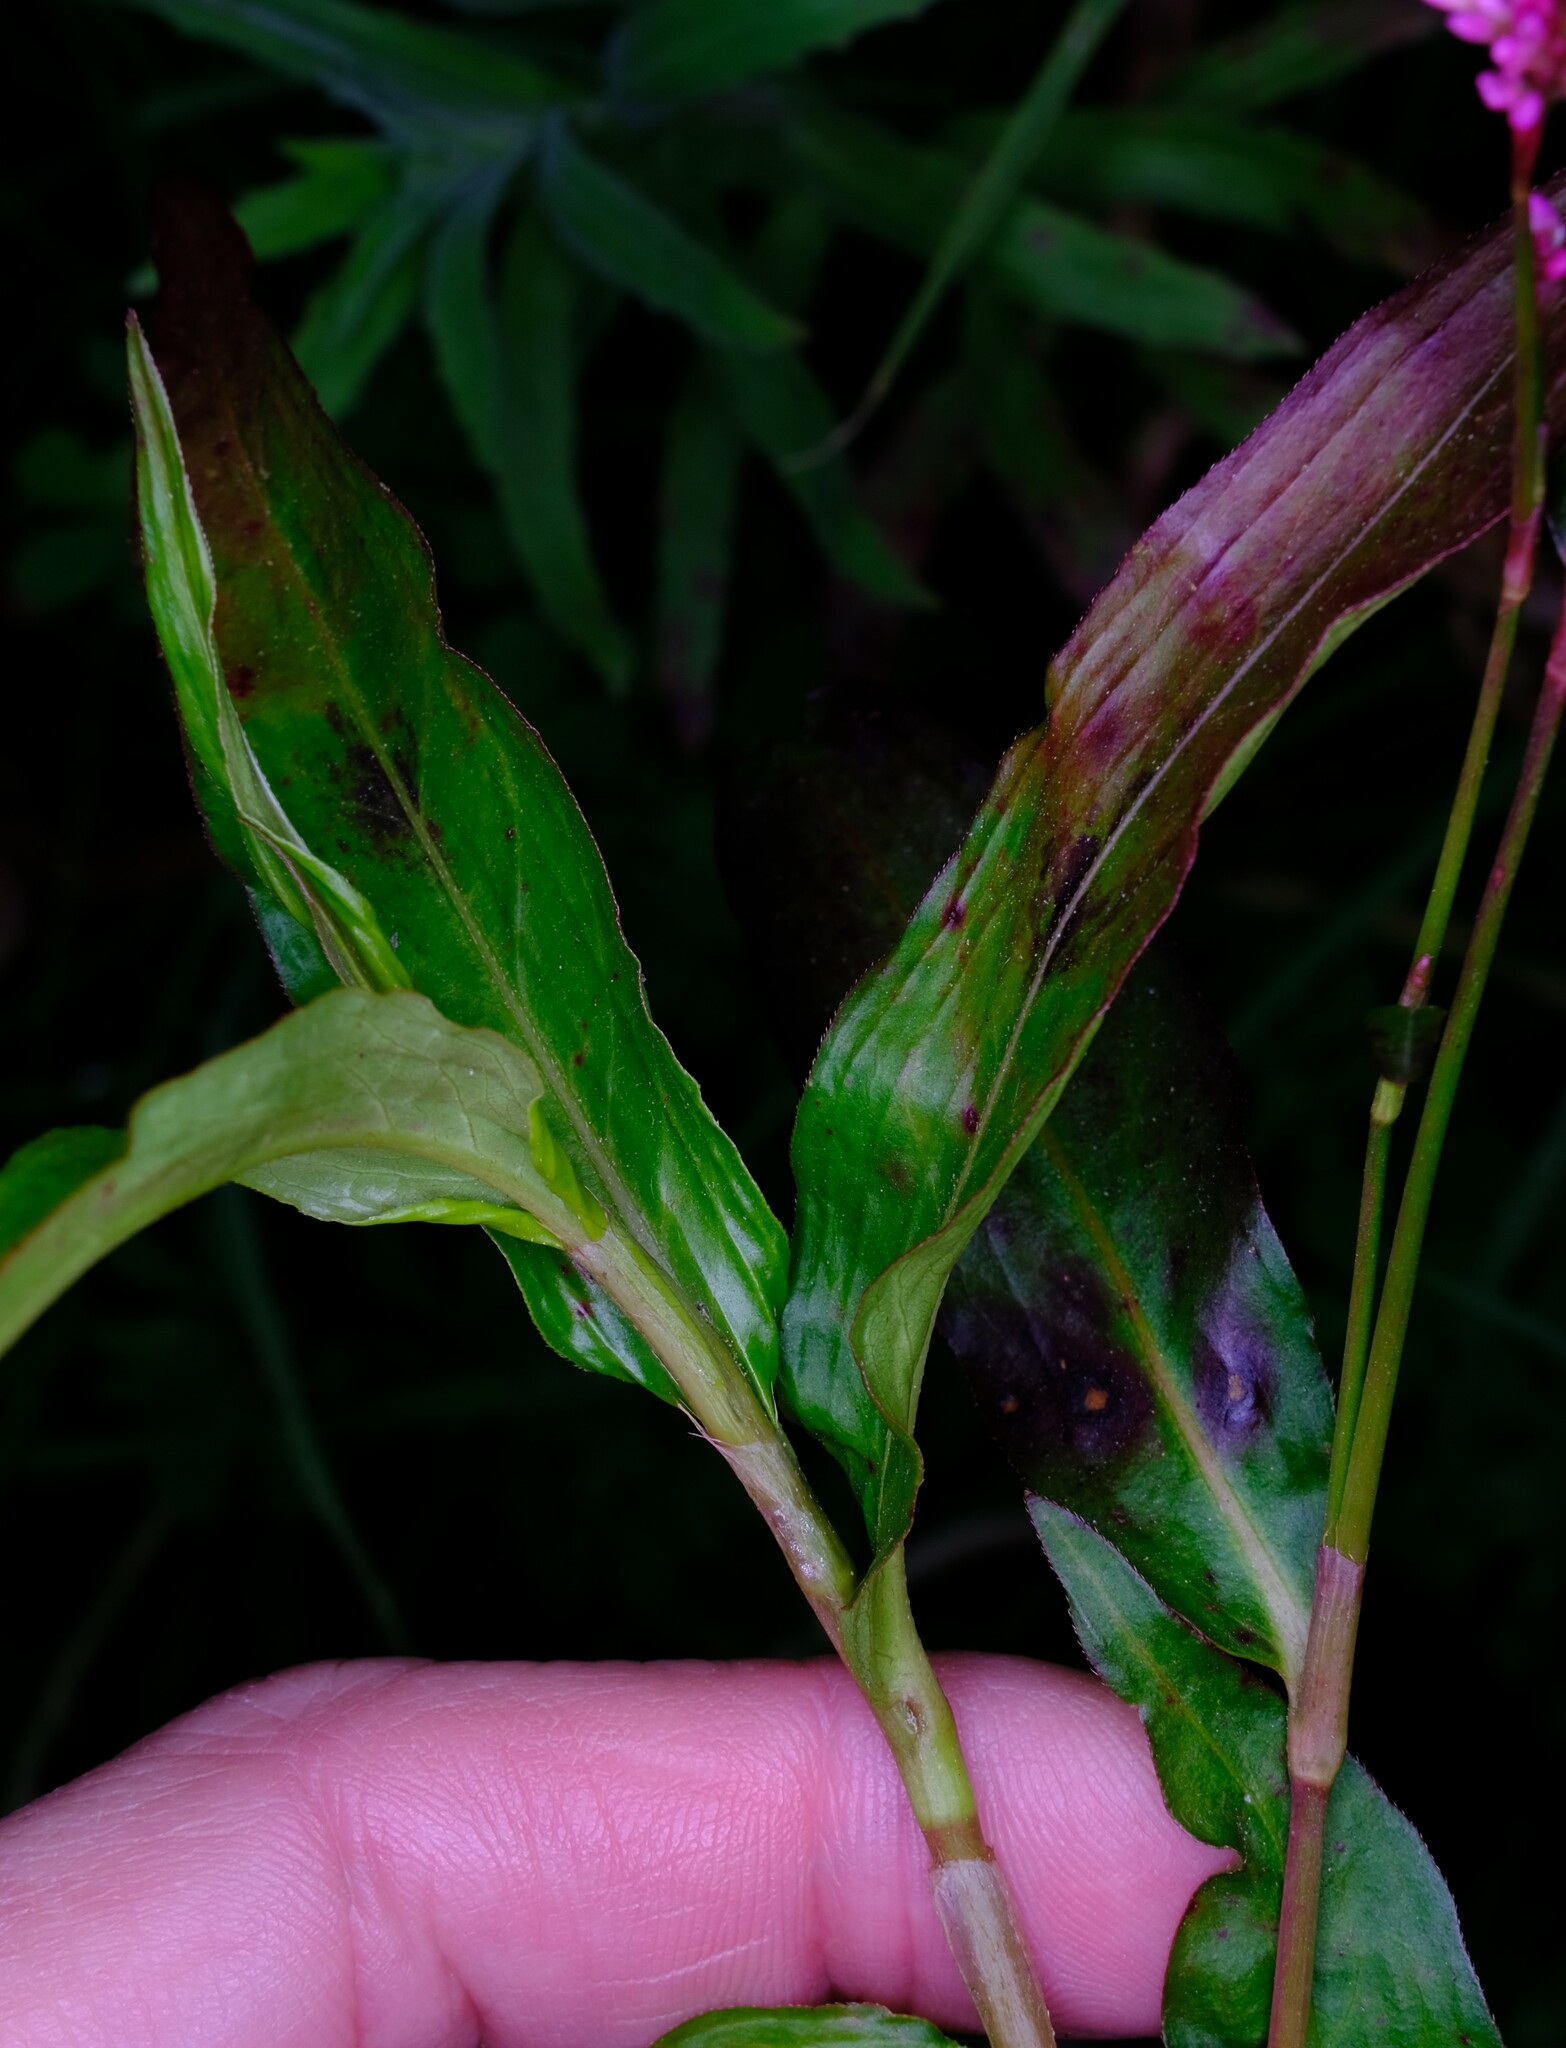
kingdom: Plantae
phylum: Tracheophyta
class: Magnoliopsida
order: Caryophyllales
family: Polygonaceae
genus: Persicaria
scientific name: Persicaria decipiens
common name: Willow-weed
